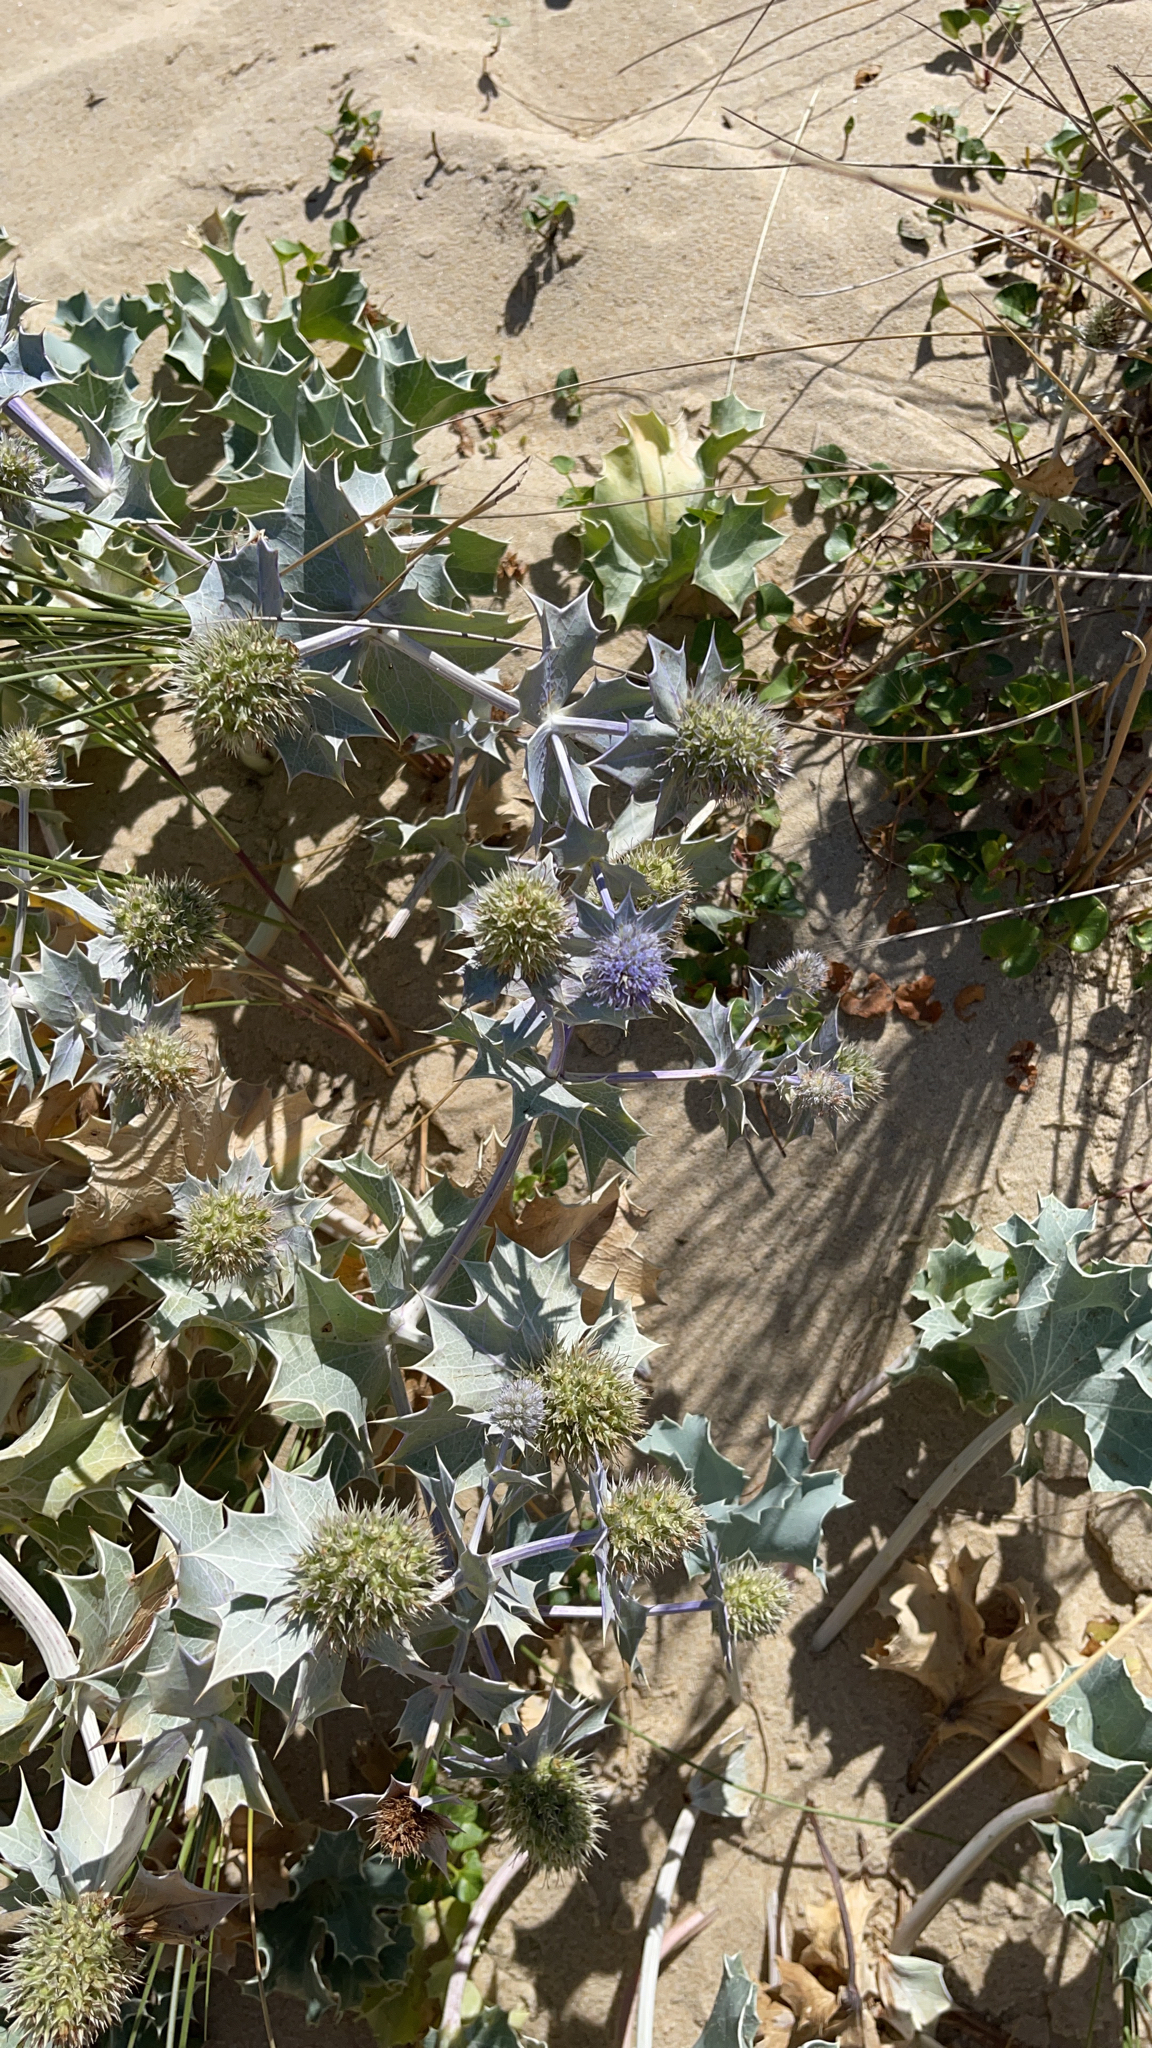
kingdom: Plantae
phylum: Tracheophyta
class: Magnoliopsida
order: Apiales
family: Apiaceae
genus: Eryngium
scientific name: Eryngium maritimum
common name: Sea-holly
